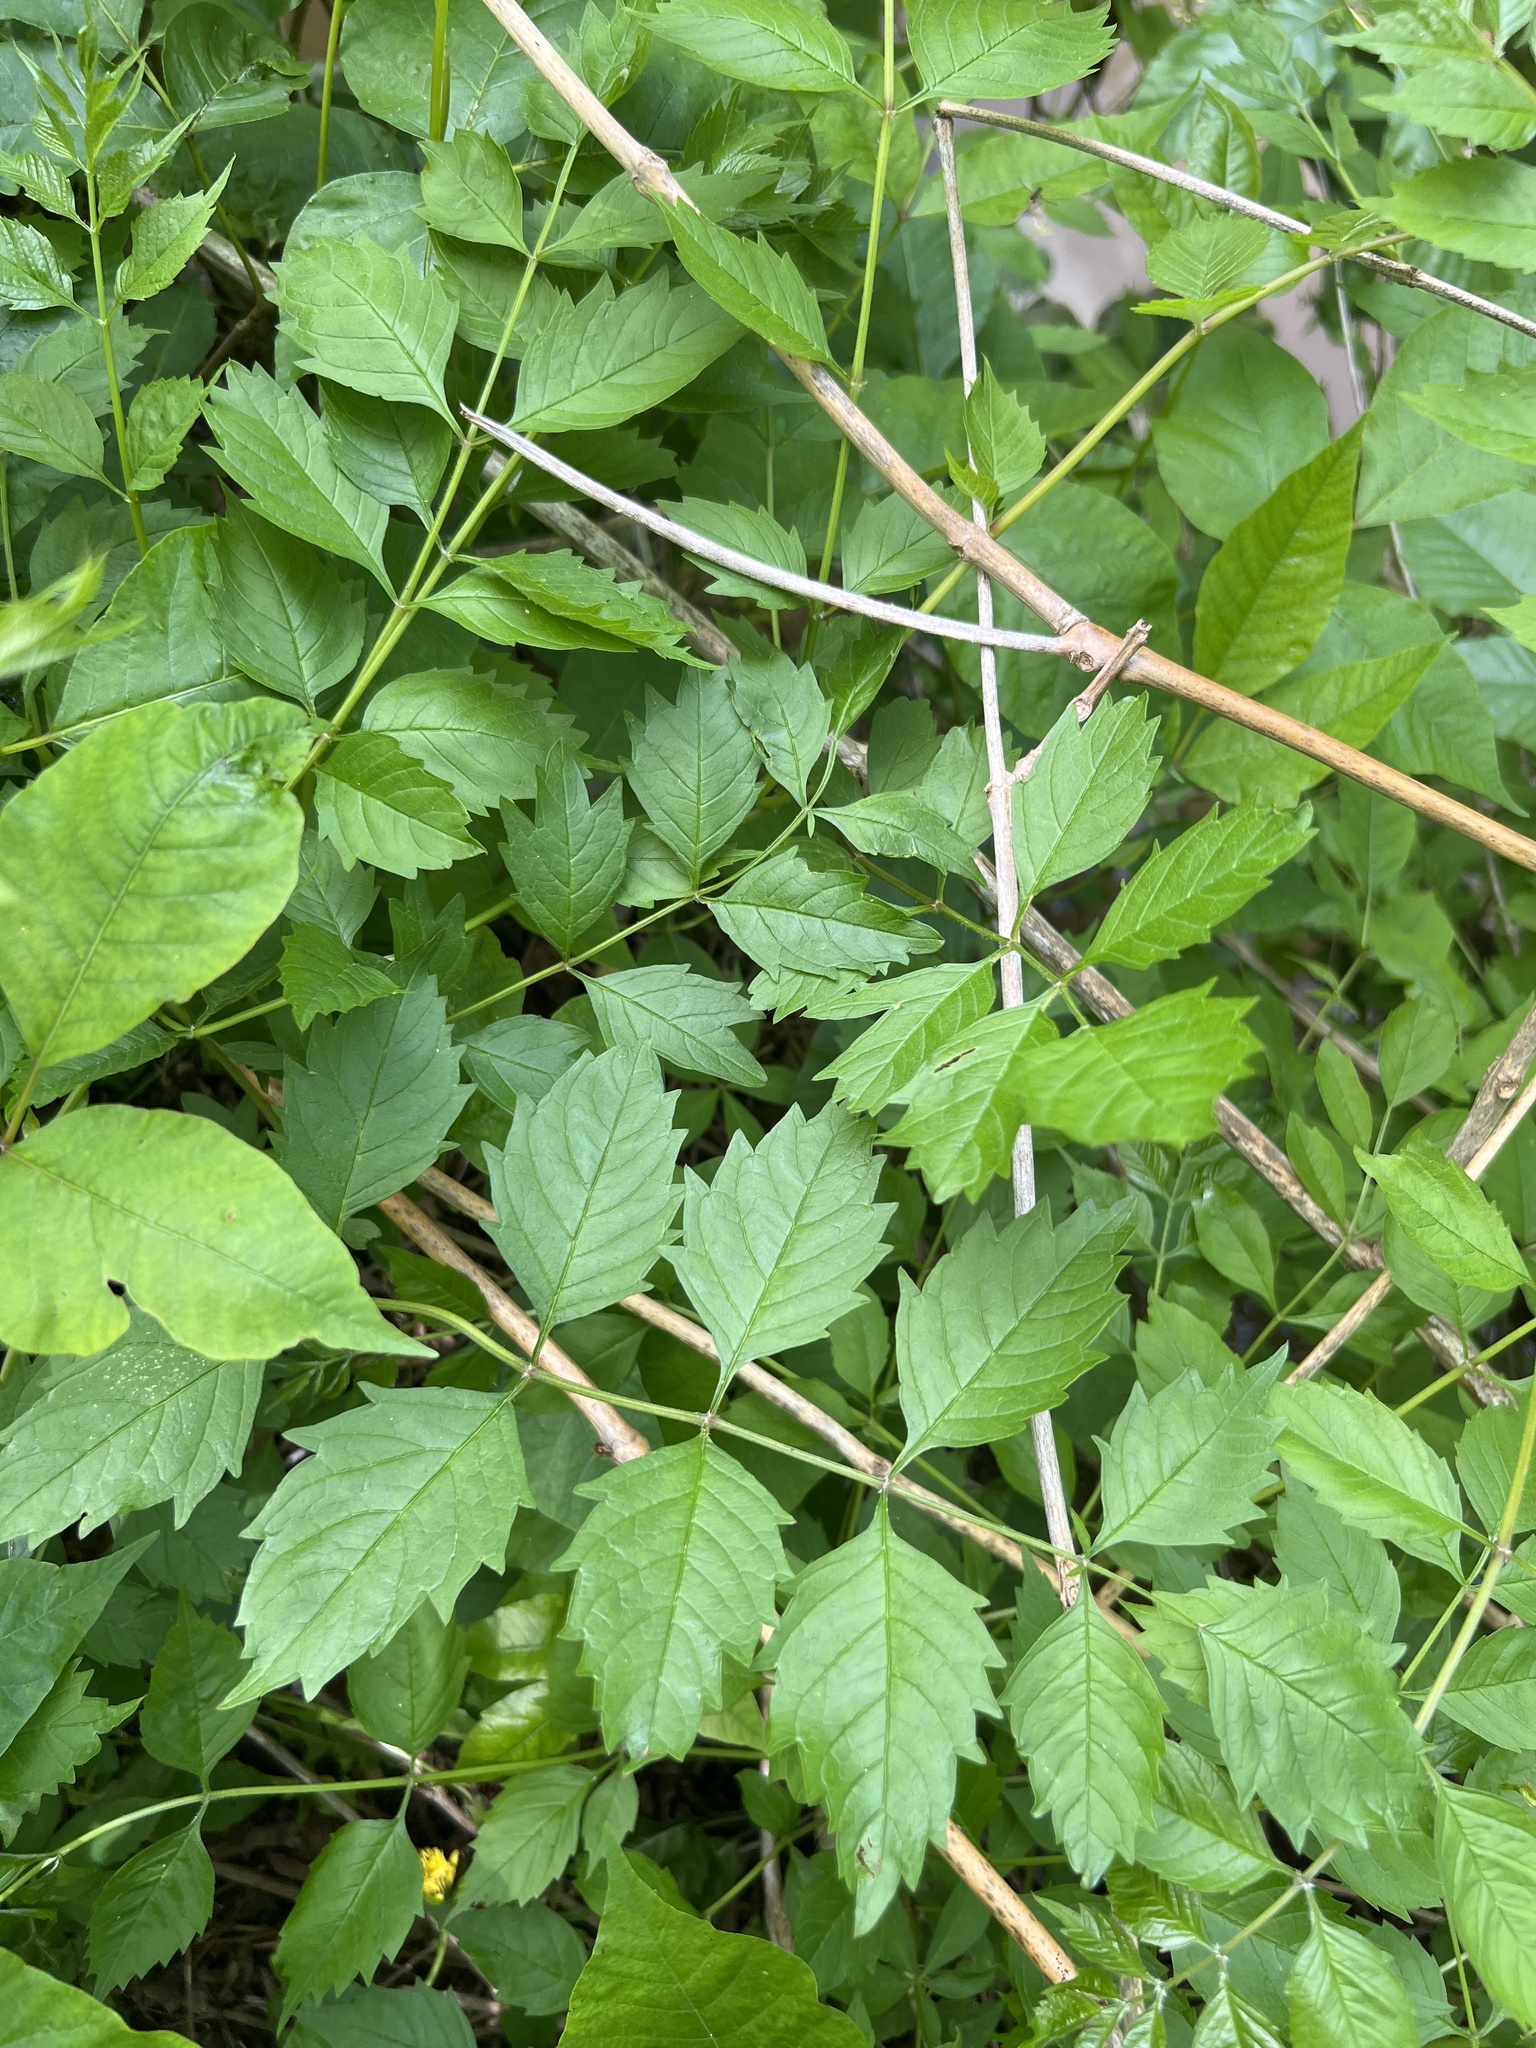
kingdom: Plantae
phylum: Tracheophyta
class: Magnoliopsida
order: Lamiales
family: Bignoniaceae
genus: Campsis
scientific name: Campsis radicans
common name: Trumpet-creeper
